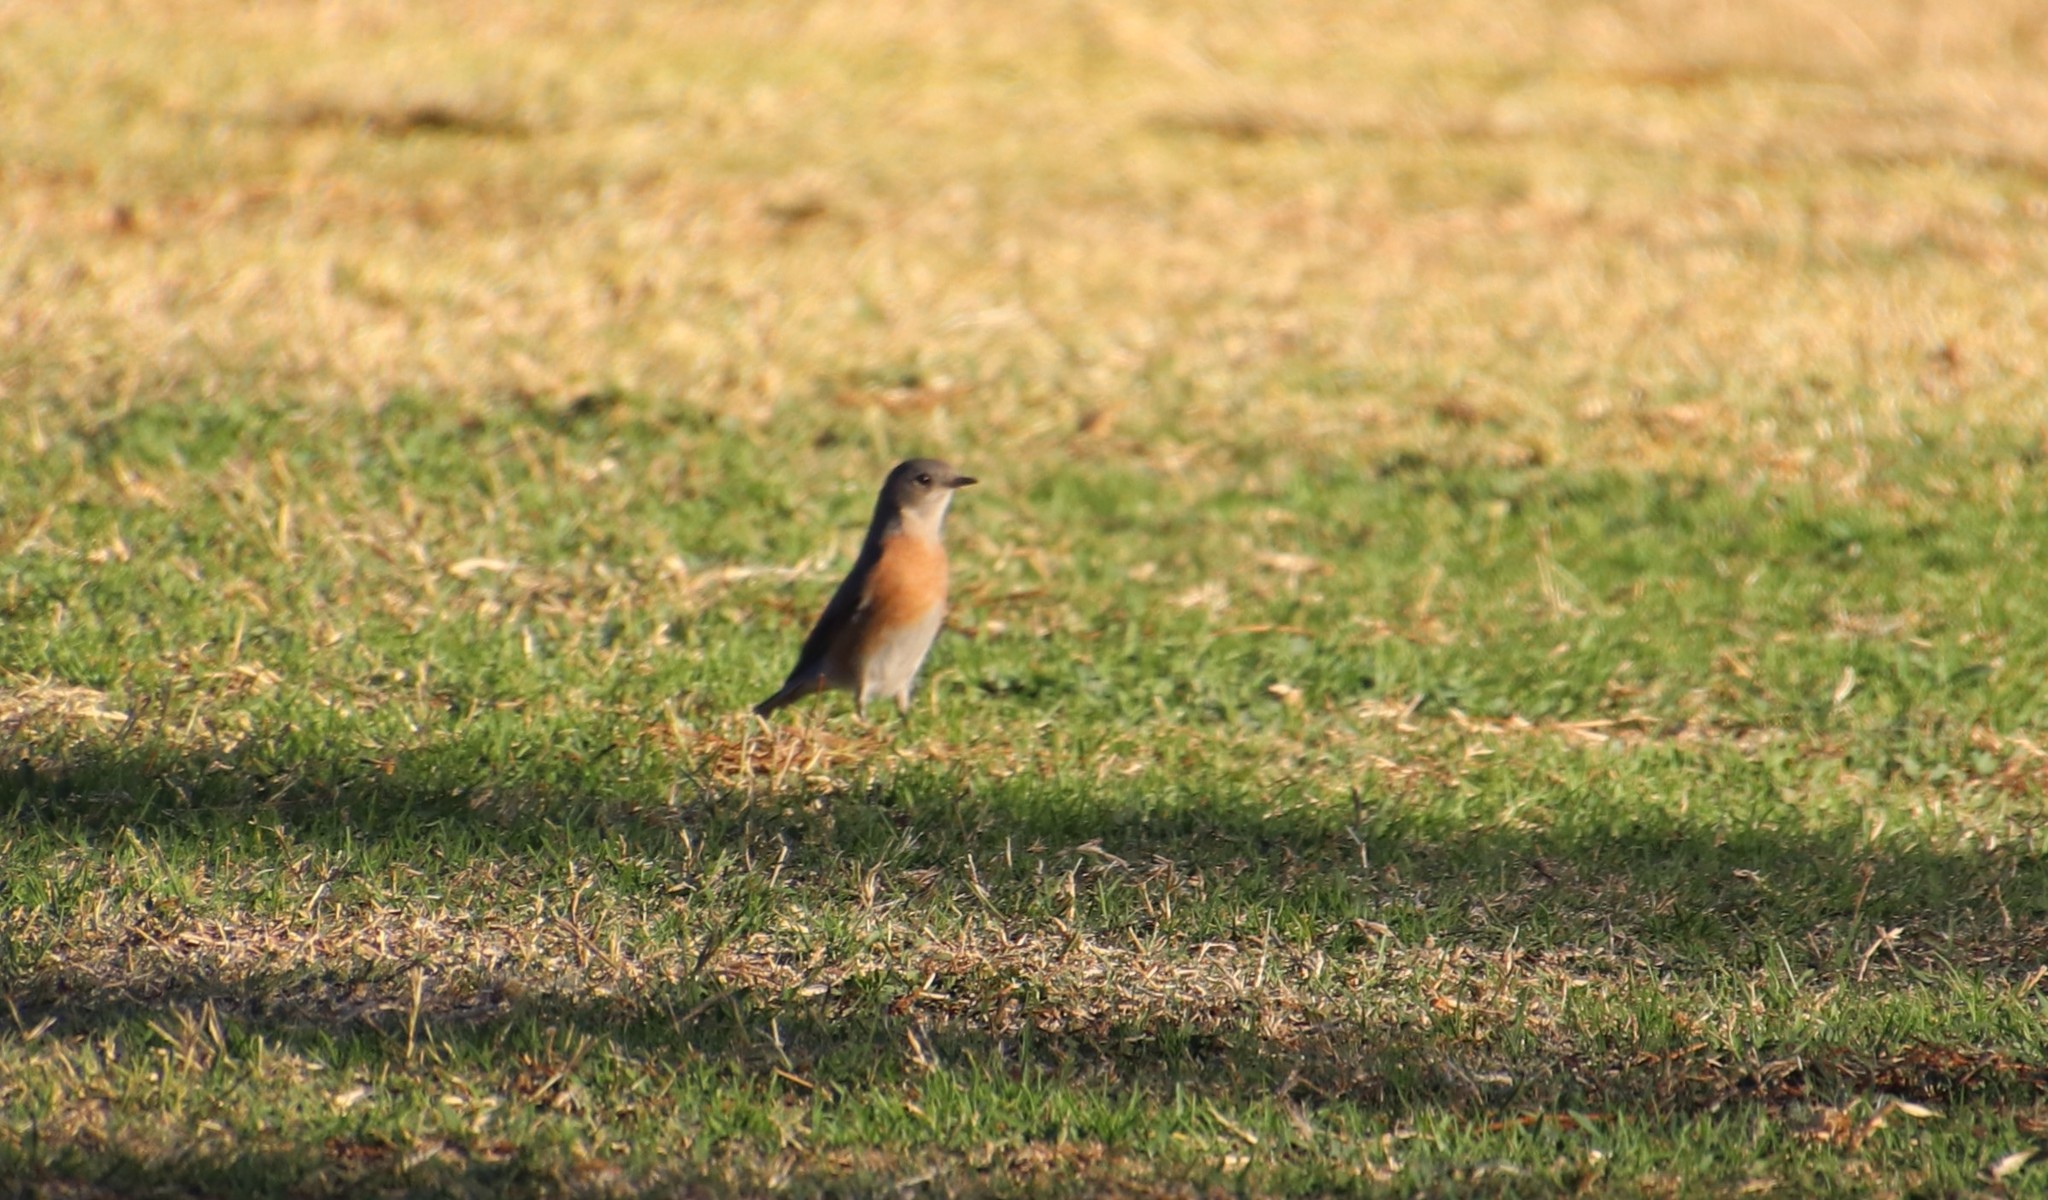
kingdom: Animalia
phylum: Chordata
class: Aves
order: Passeriformes
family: Turdidae
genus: Sialia
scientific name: Sialia mexicana
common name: Western bluebird
